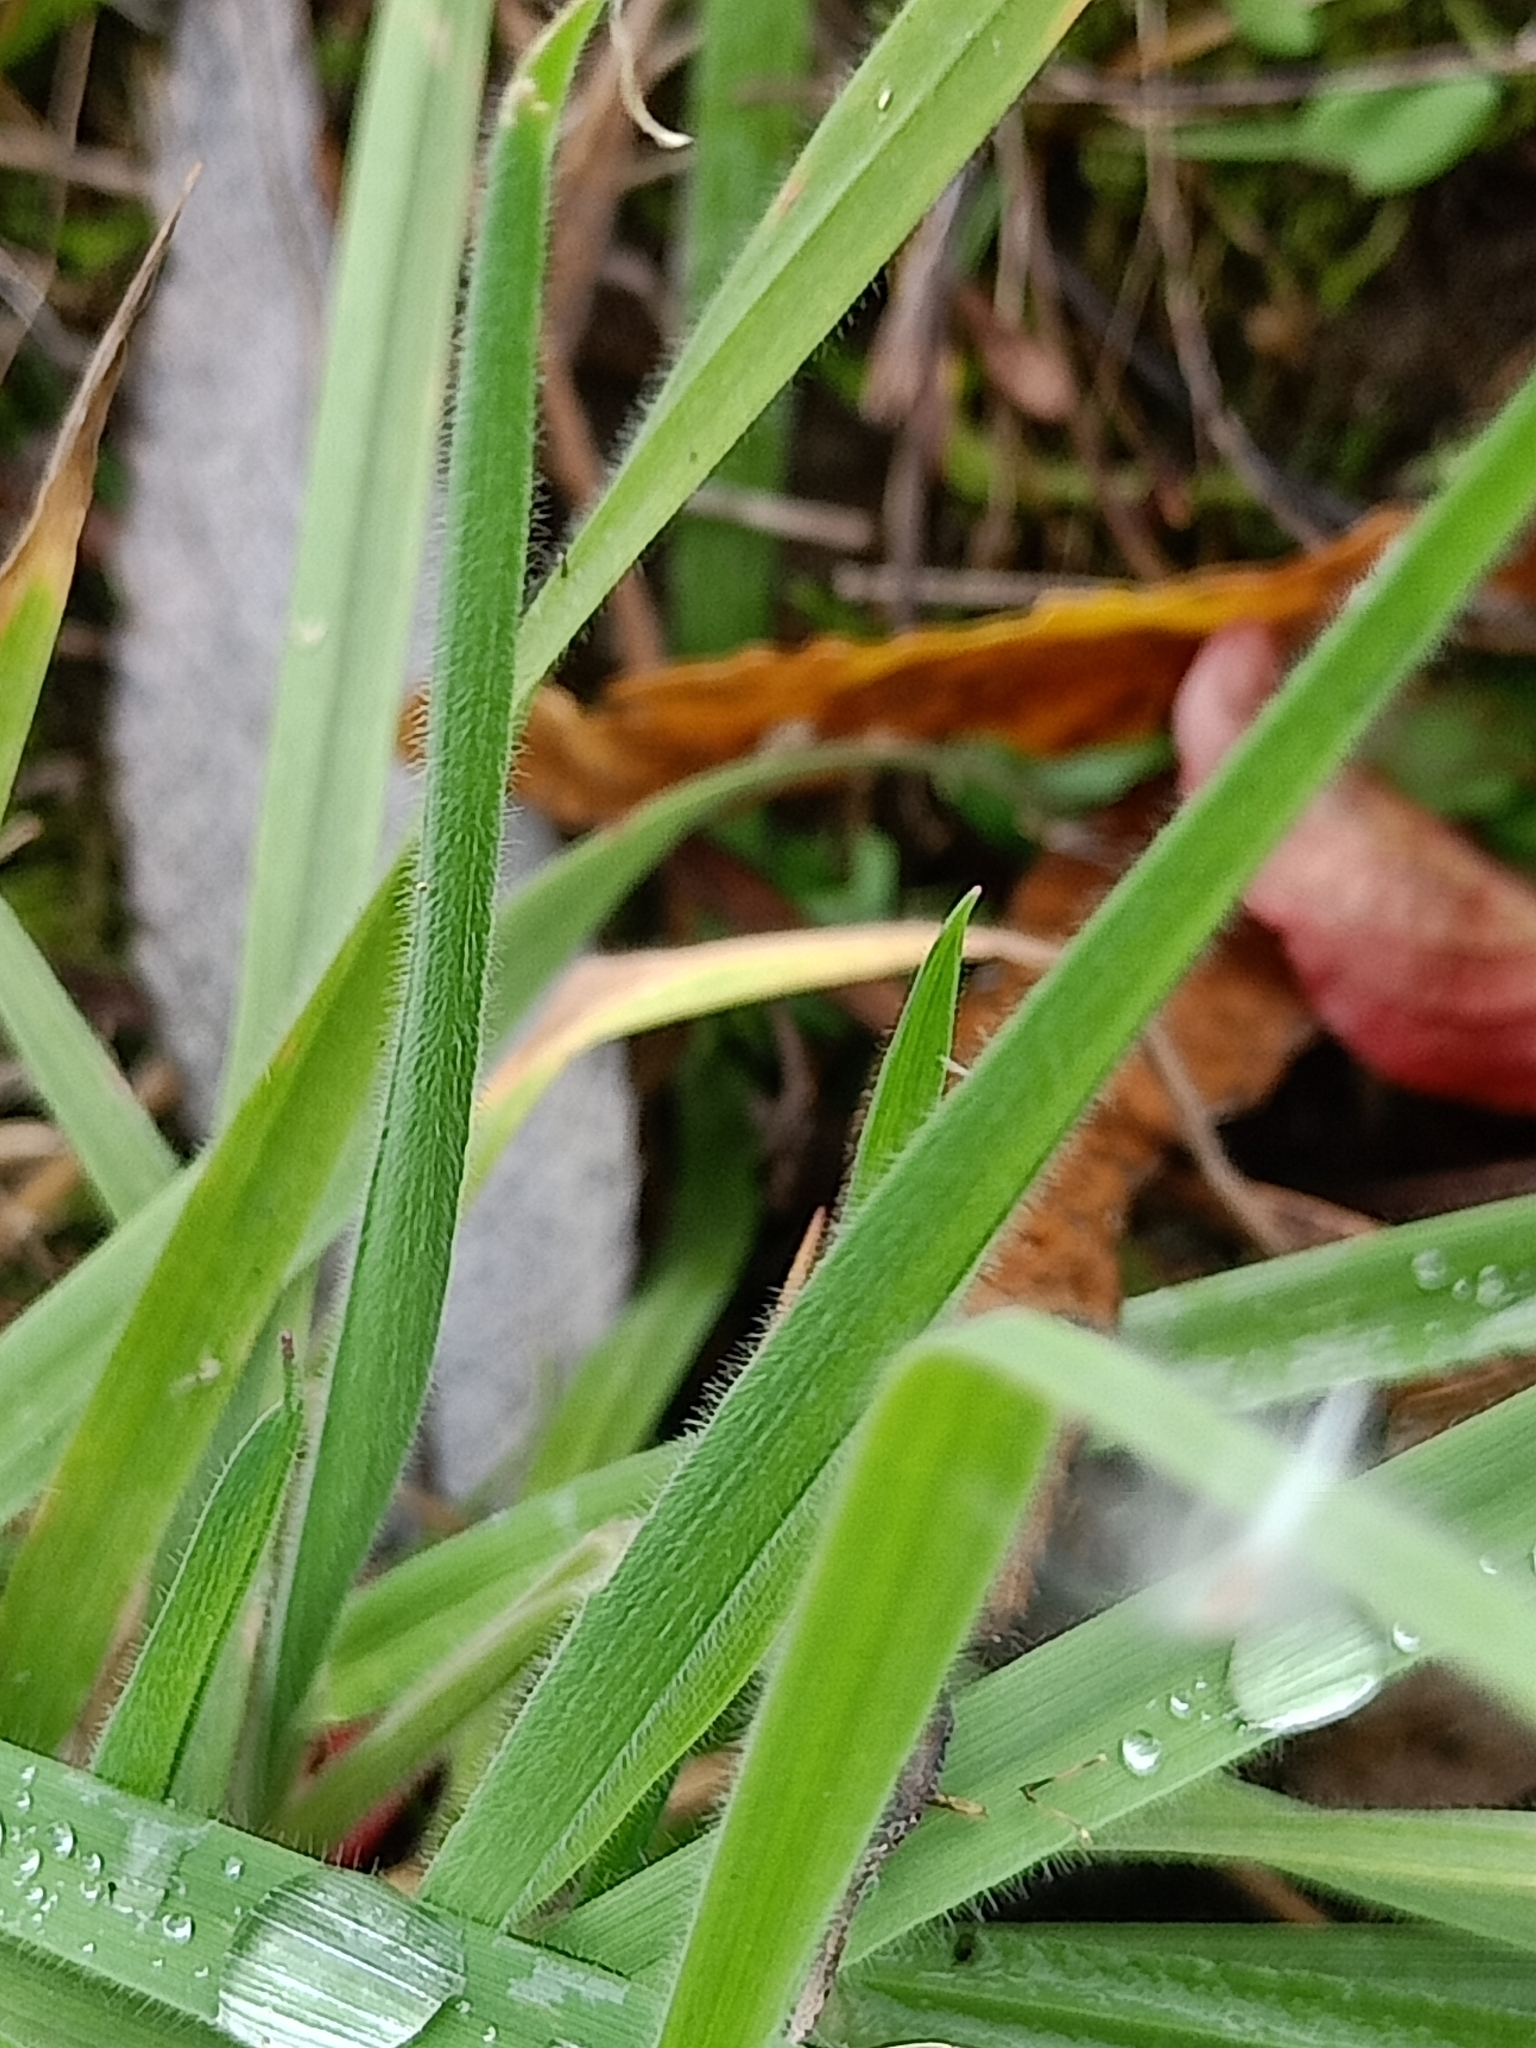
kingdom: Plantae
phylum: Tracheophyta
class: Liliopsida
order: Poales
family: Poaceae
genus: Holcus
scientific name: Holcus lanatus
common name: Yorkshire-fog
